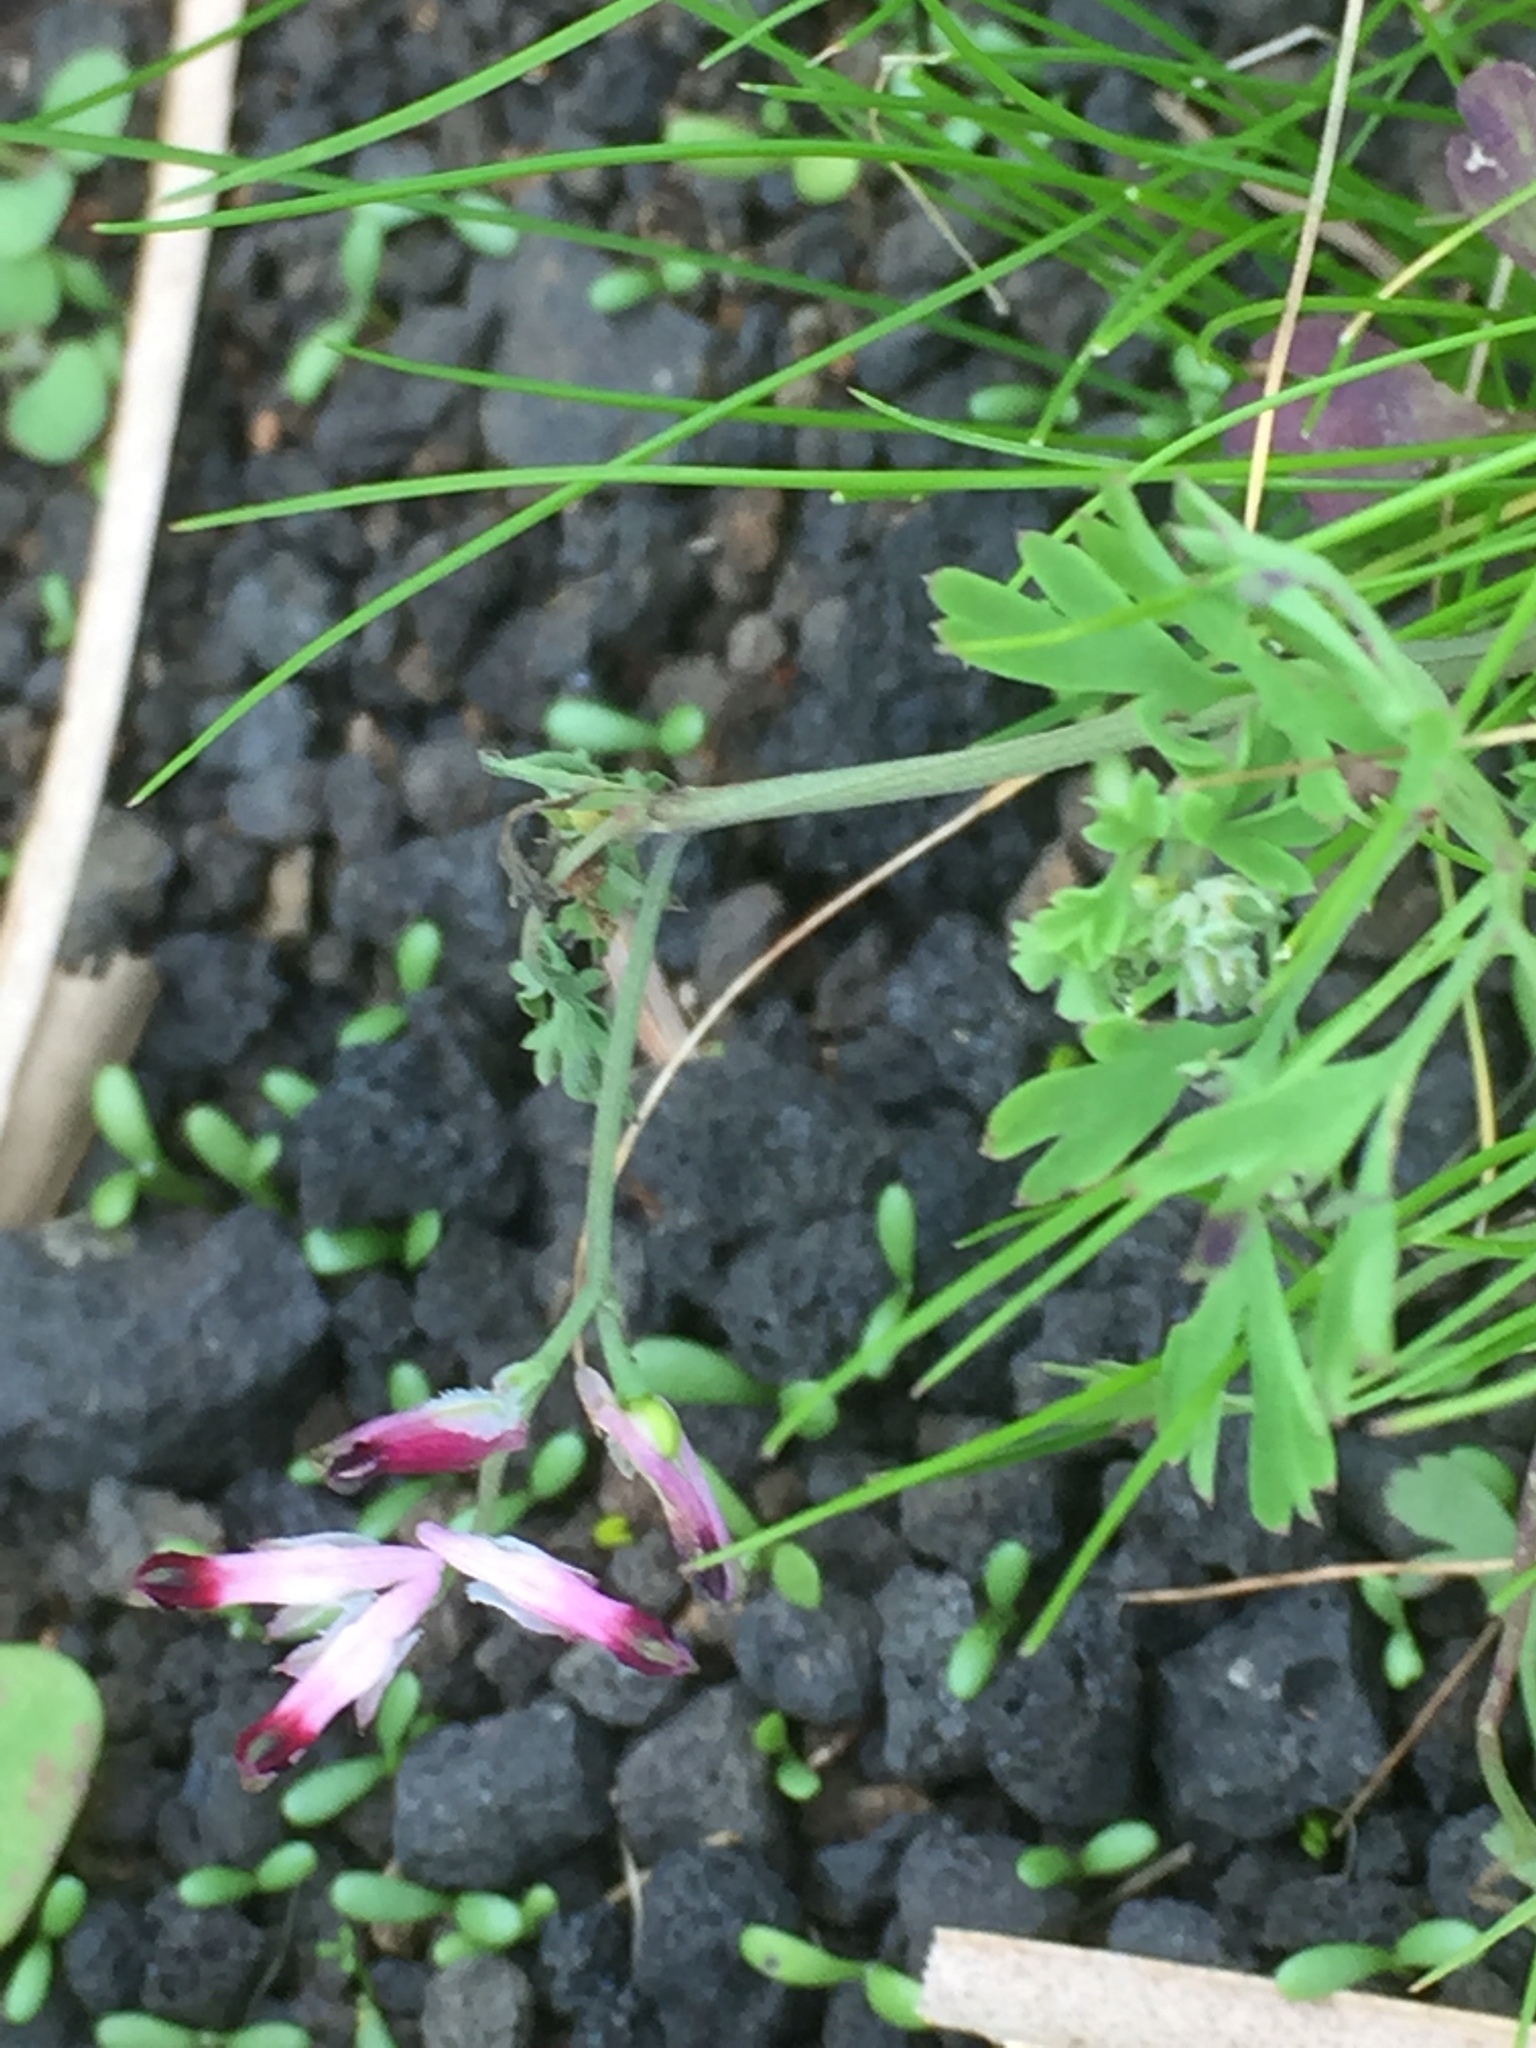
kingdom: Plantae
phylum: Tracheophyta
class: Magnoliopsida
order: Ranunculales
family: Papaveraceae
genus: Fumaria
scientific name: Fumaria capreolata
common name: White ramping-fumitory
